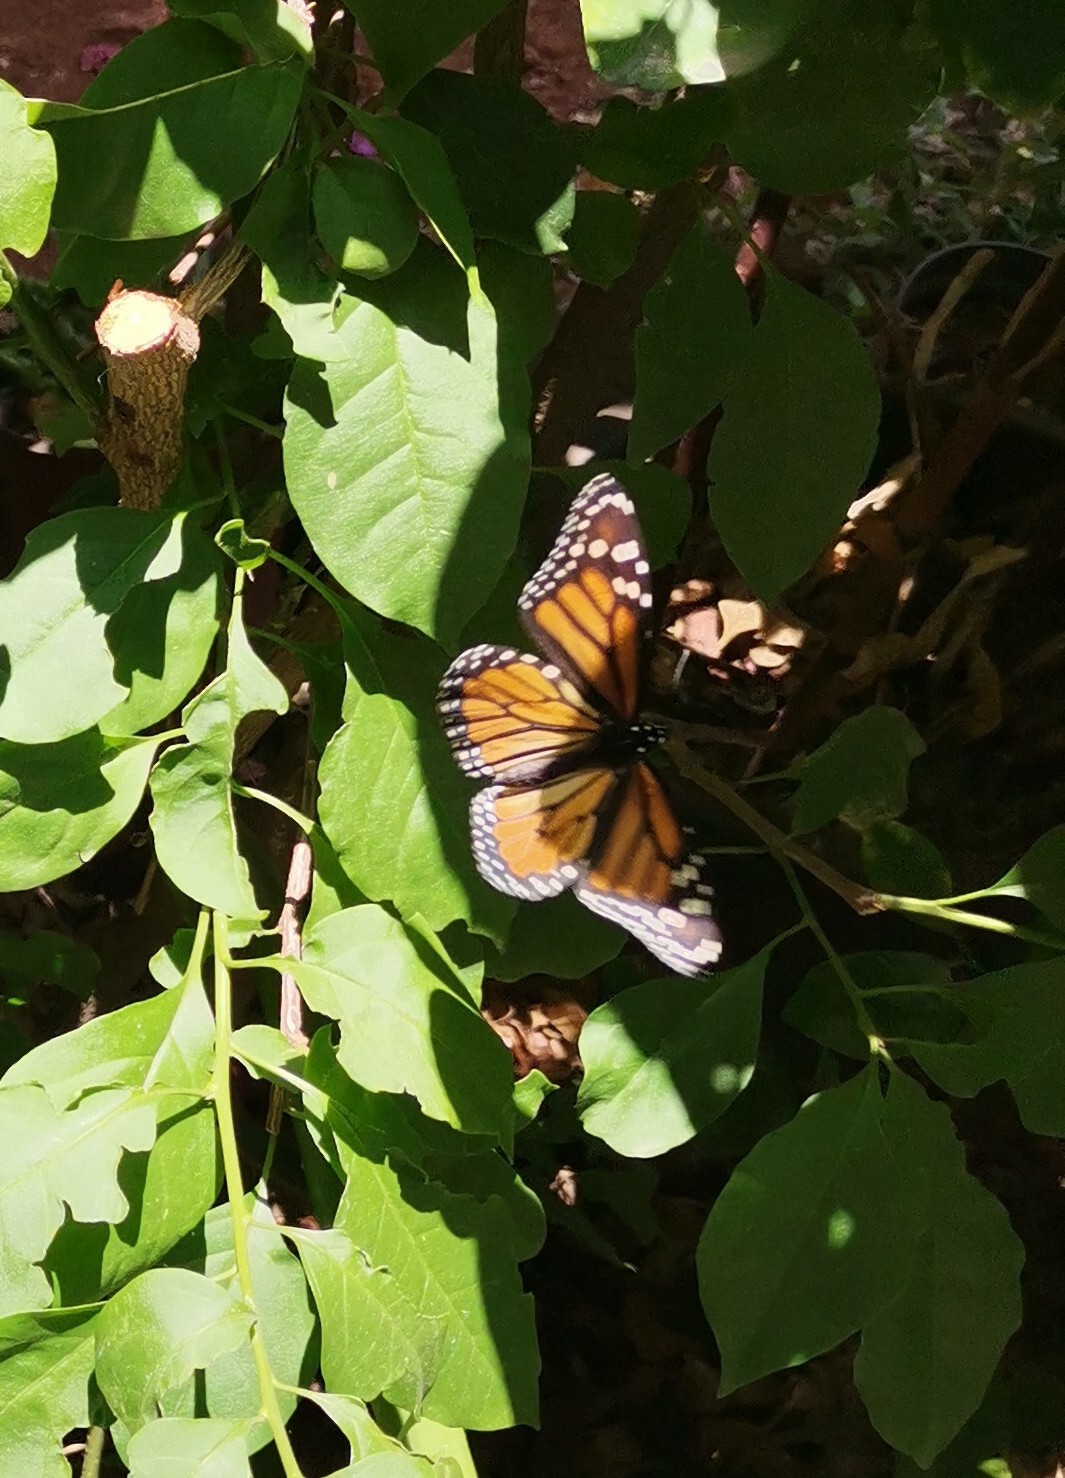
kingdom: Animalia
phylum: Arthropoda
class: Insecta
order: Lepidoptera
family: Nymphalidae
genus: Danaus
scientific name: Danaus plexippus
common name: Monarch
